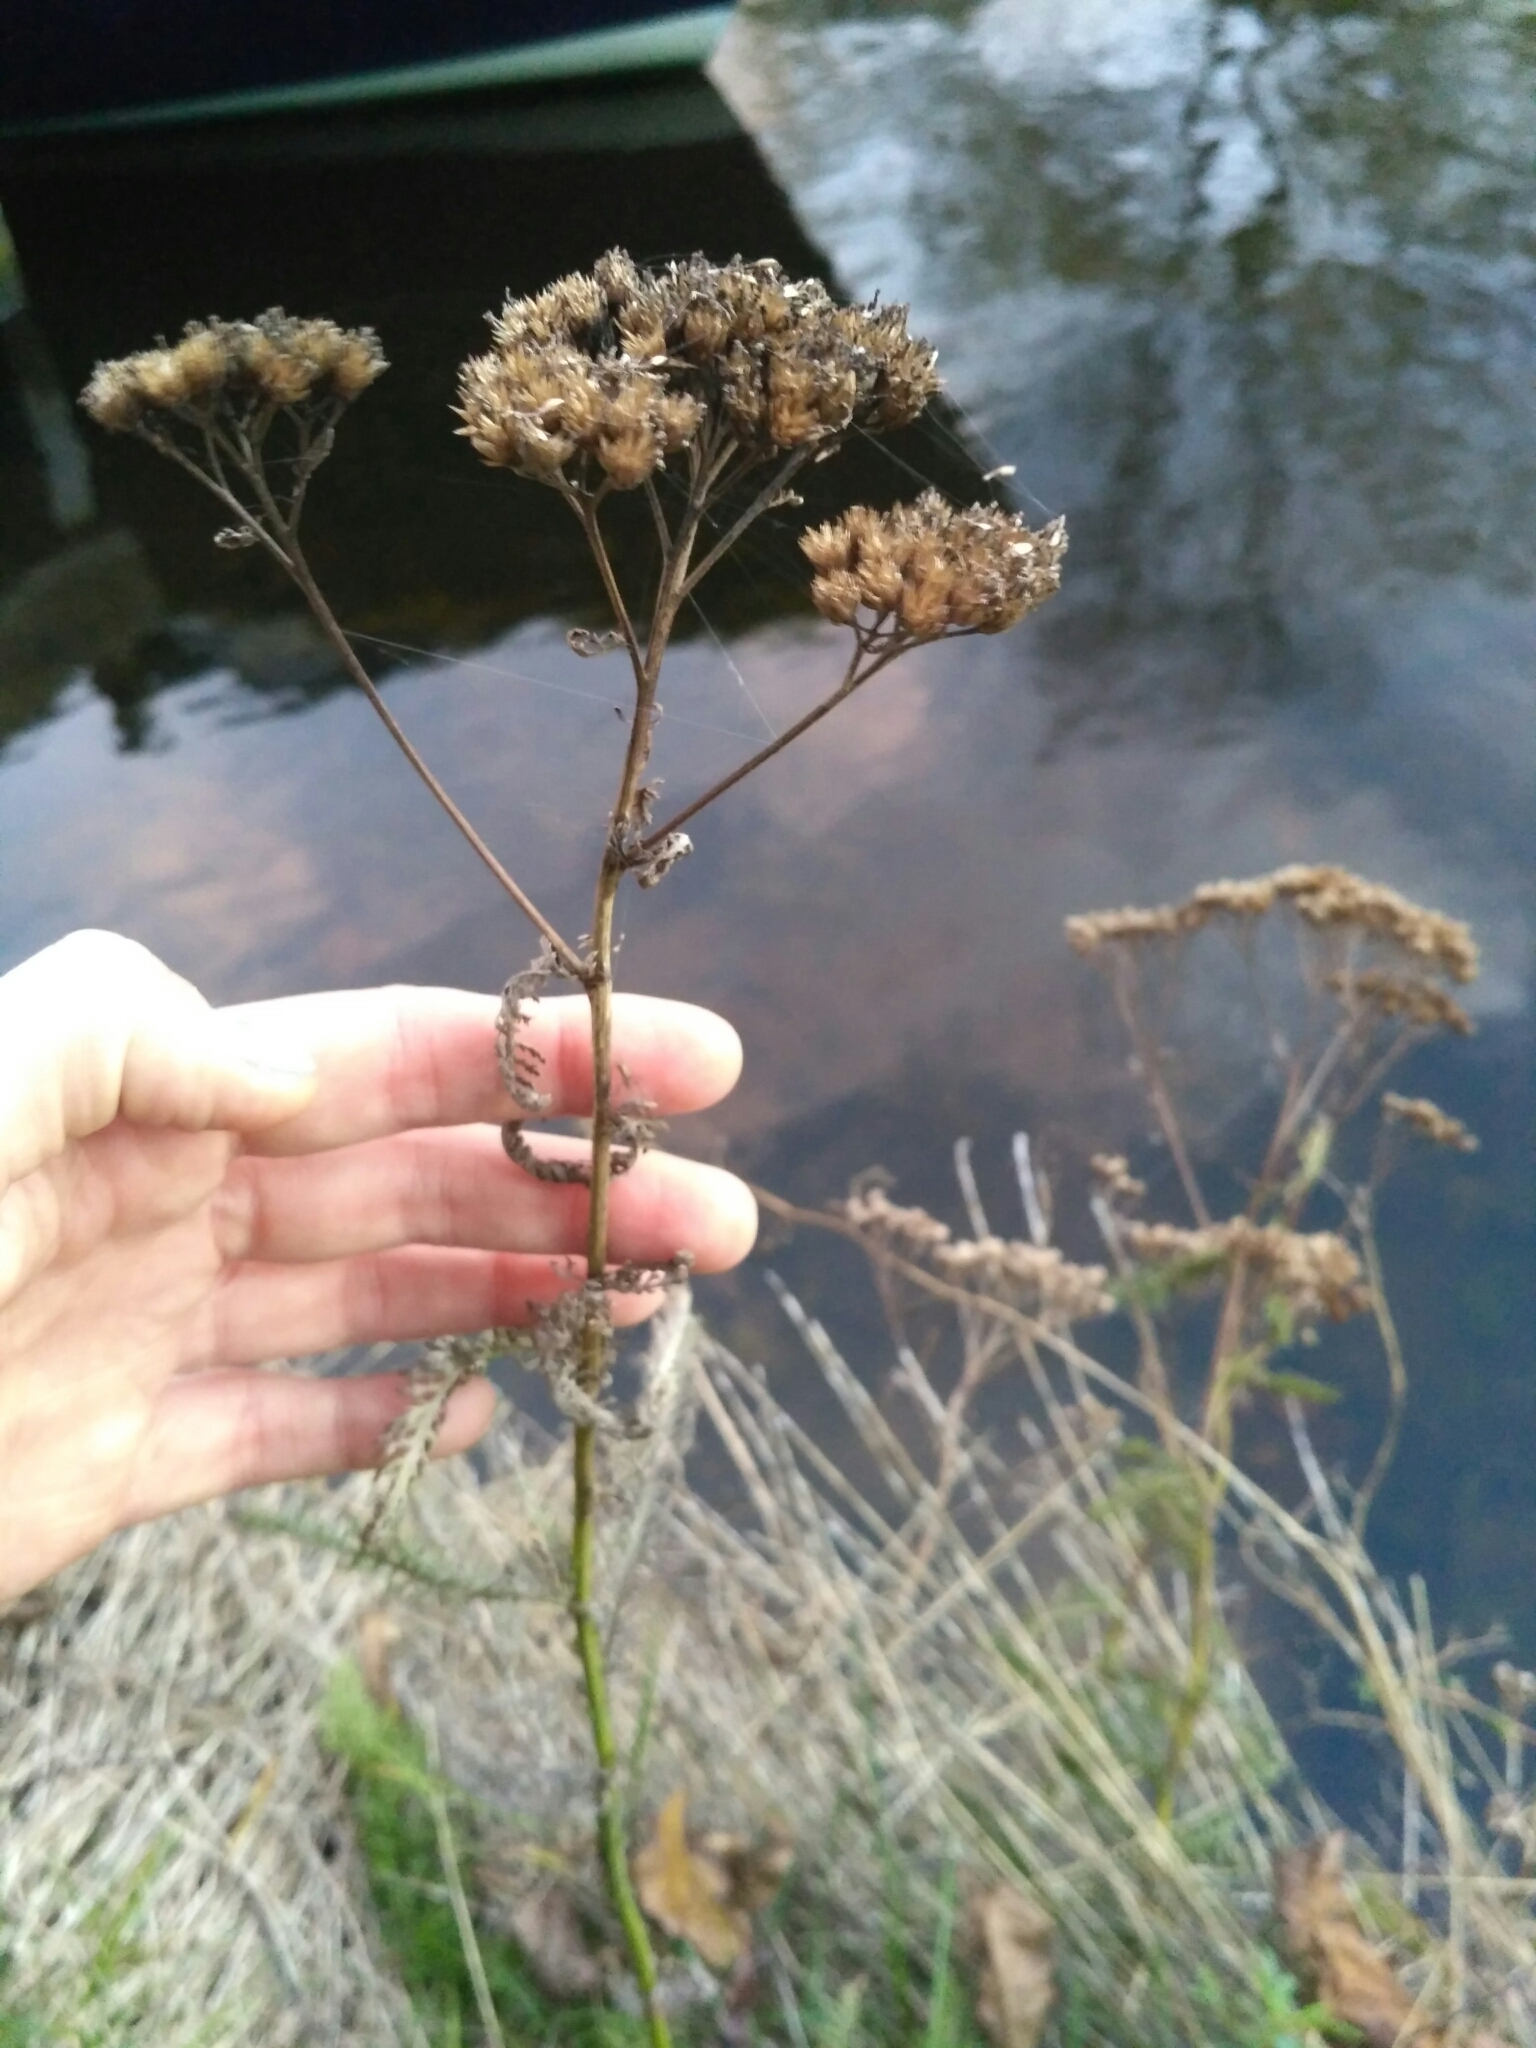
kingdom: Plantae
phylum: Tracheophyta
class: Magnoliopsida
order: Asterales
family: Asteraceae
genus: Achillea
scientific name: Achillea millefolium
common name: Yarrow
